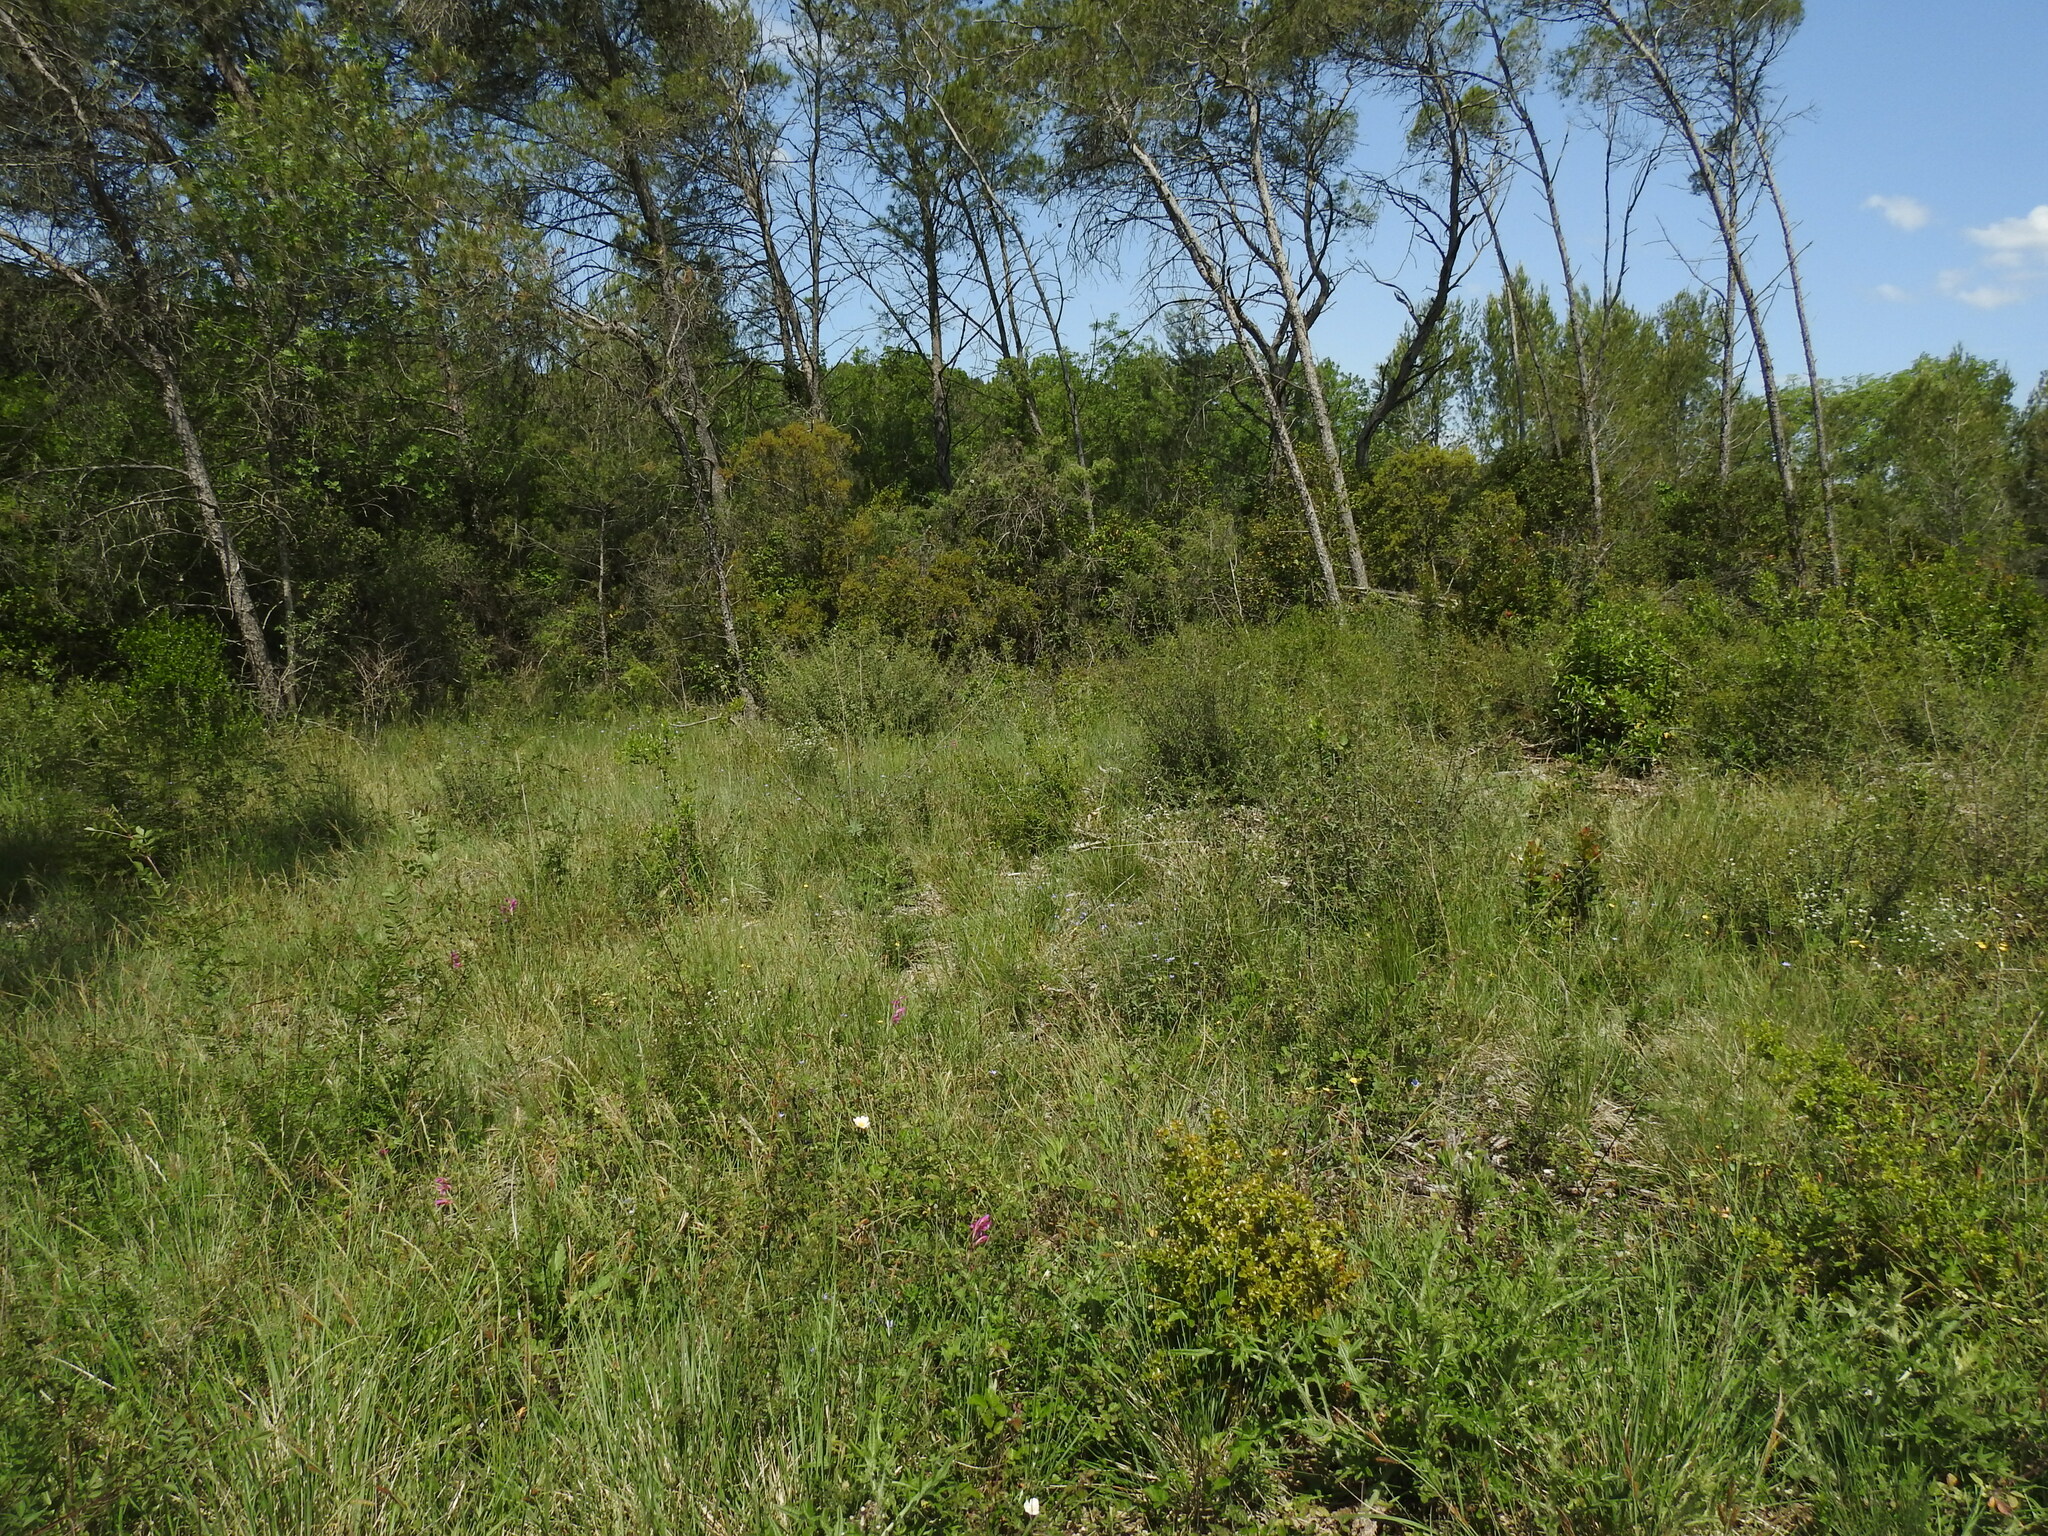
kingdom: Plantae
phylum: Tracheophyta
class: Liliopsida
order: Asparagales
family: Iridaceae
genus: Gladiolus
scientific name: Gladiolus dubius
